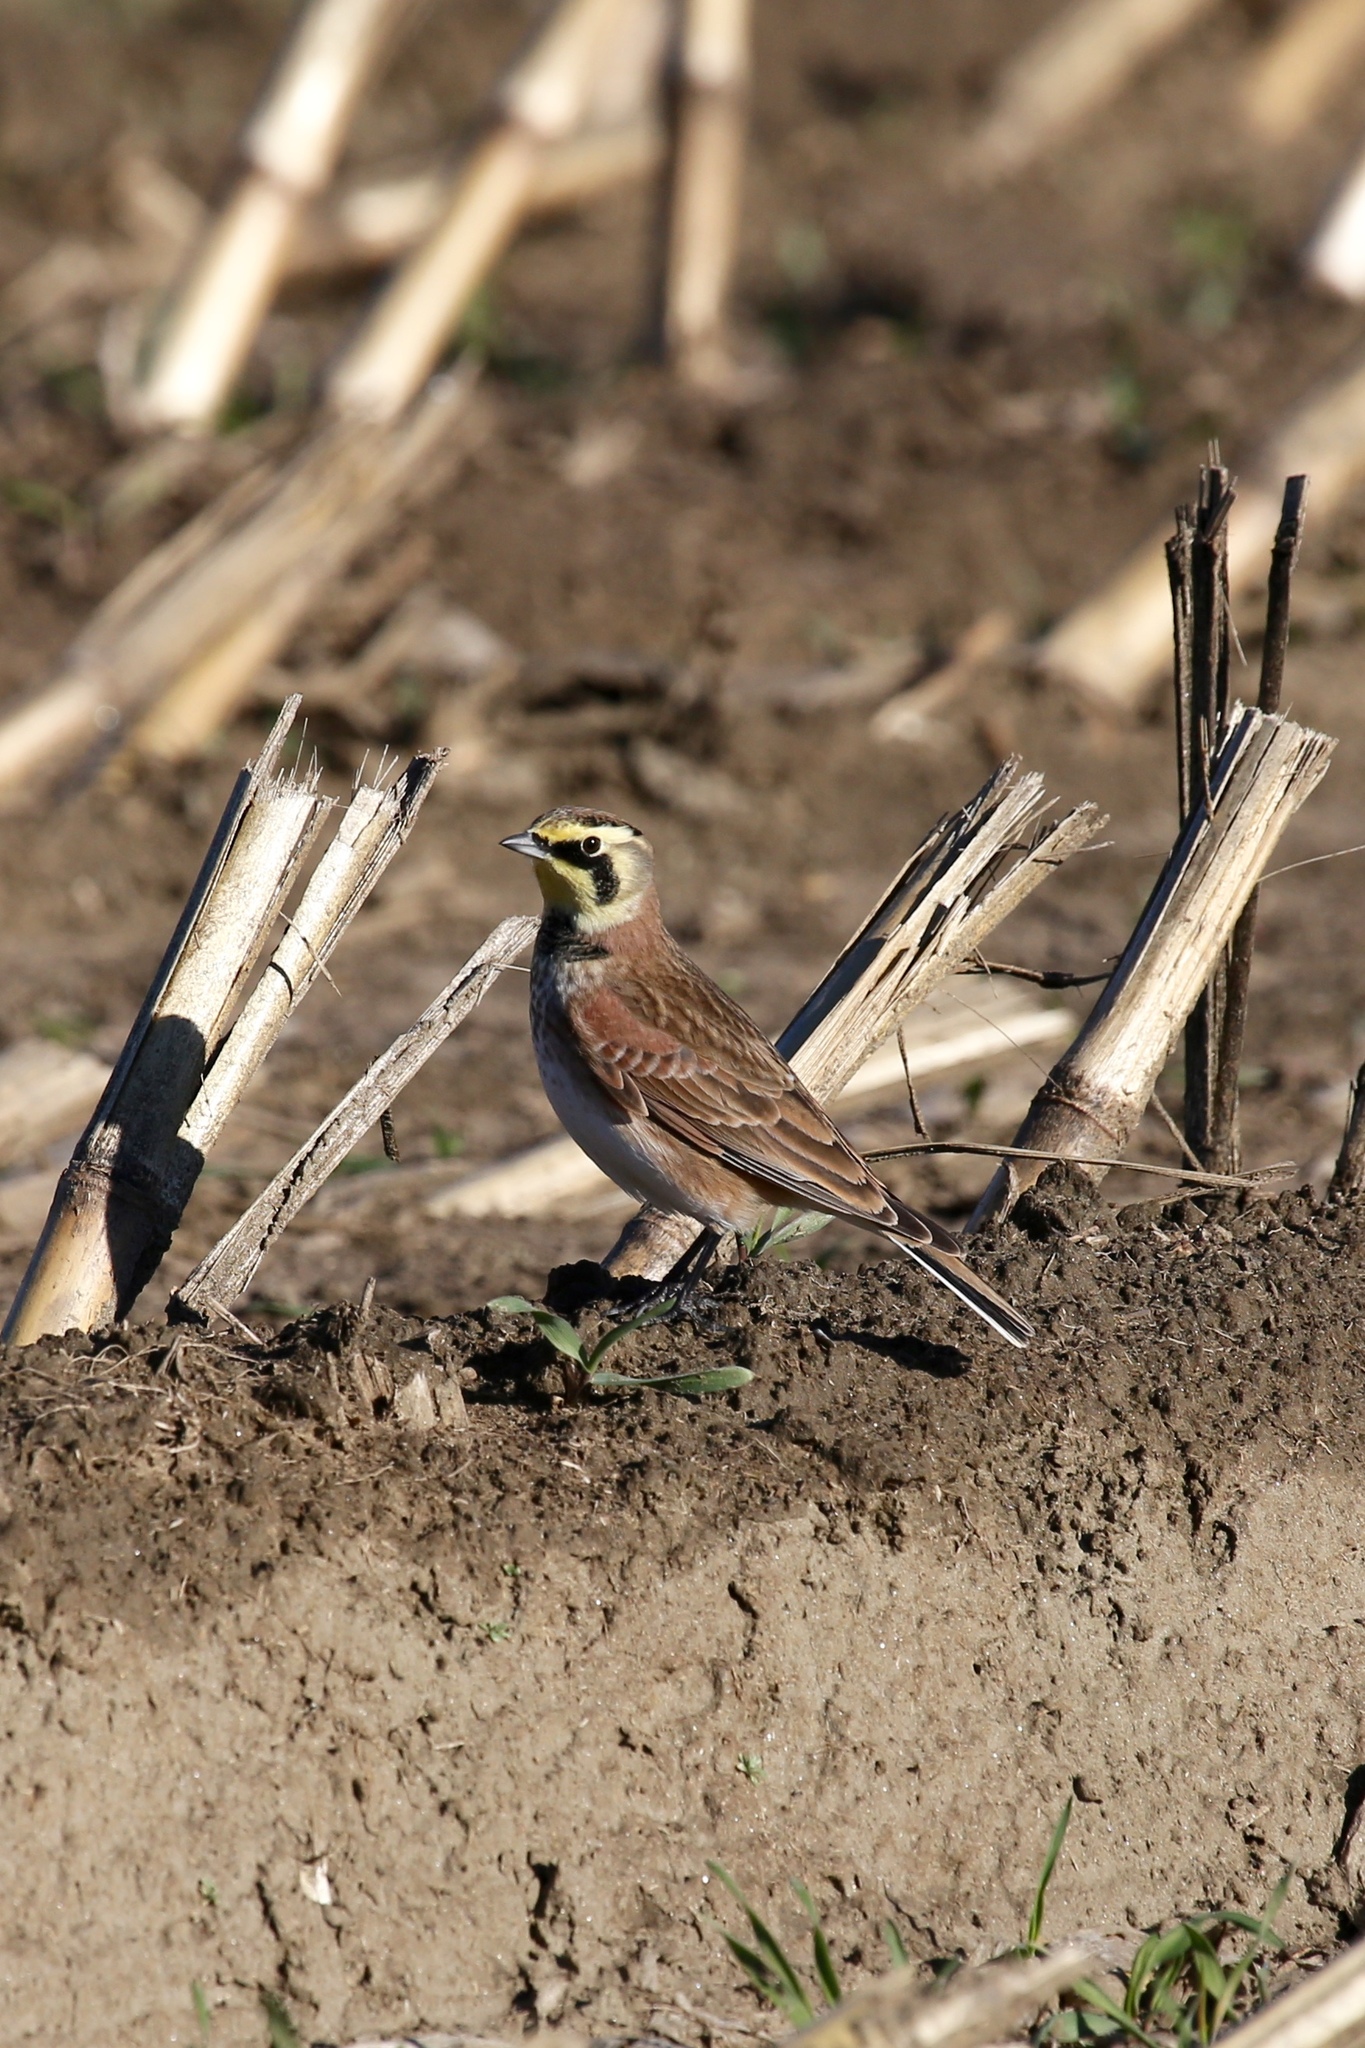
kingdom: Animalia
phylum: Chordata
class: Aves
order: Passeriformes
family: Alaudidae
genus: Eremophila
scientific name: Eremophila alpestris
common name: Horned lark
